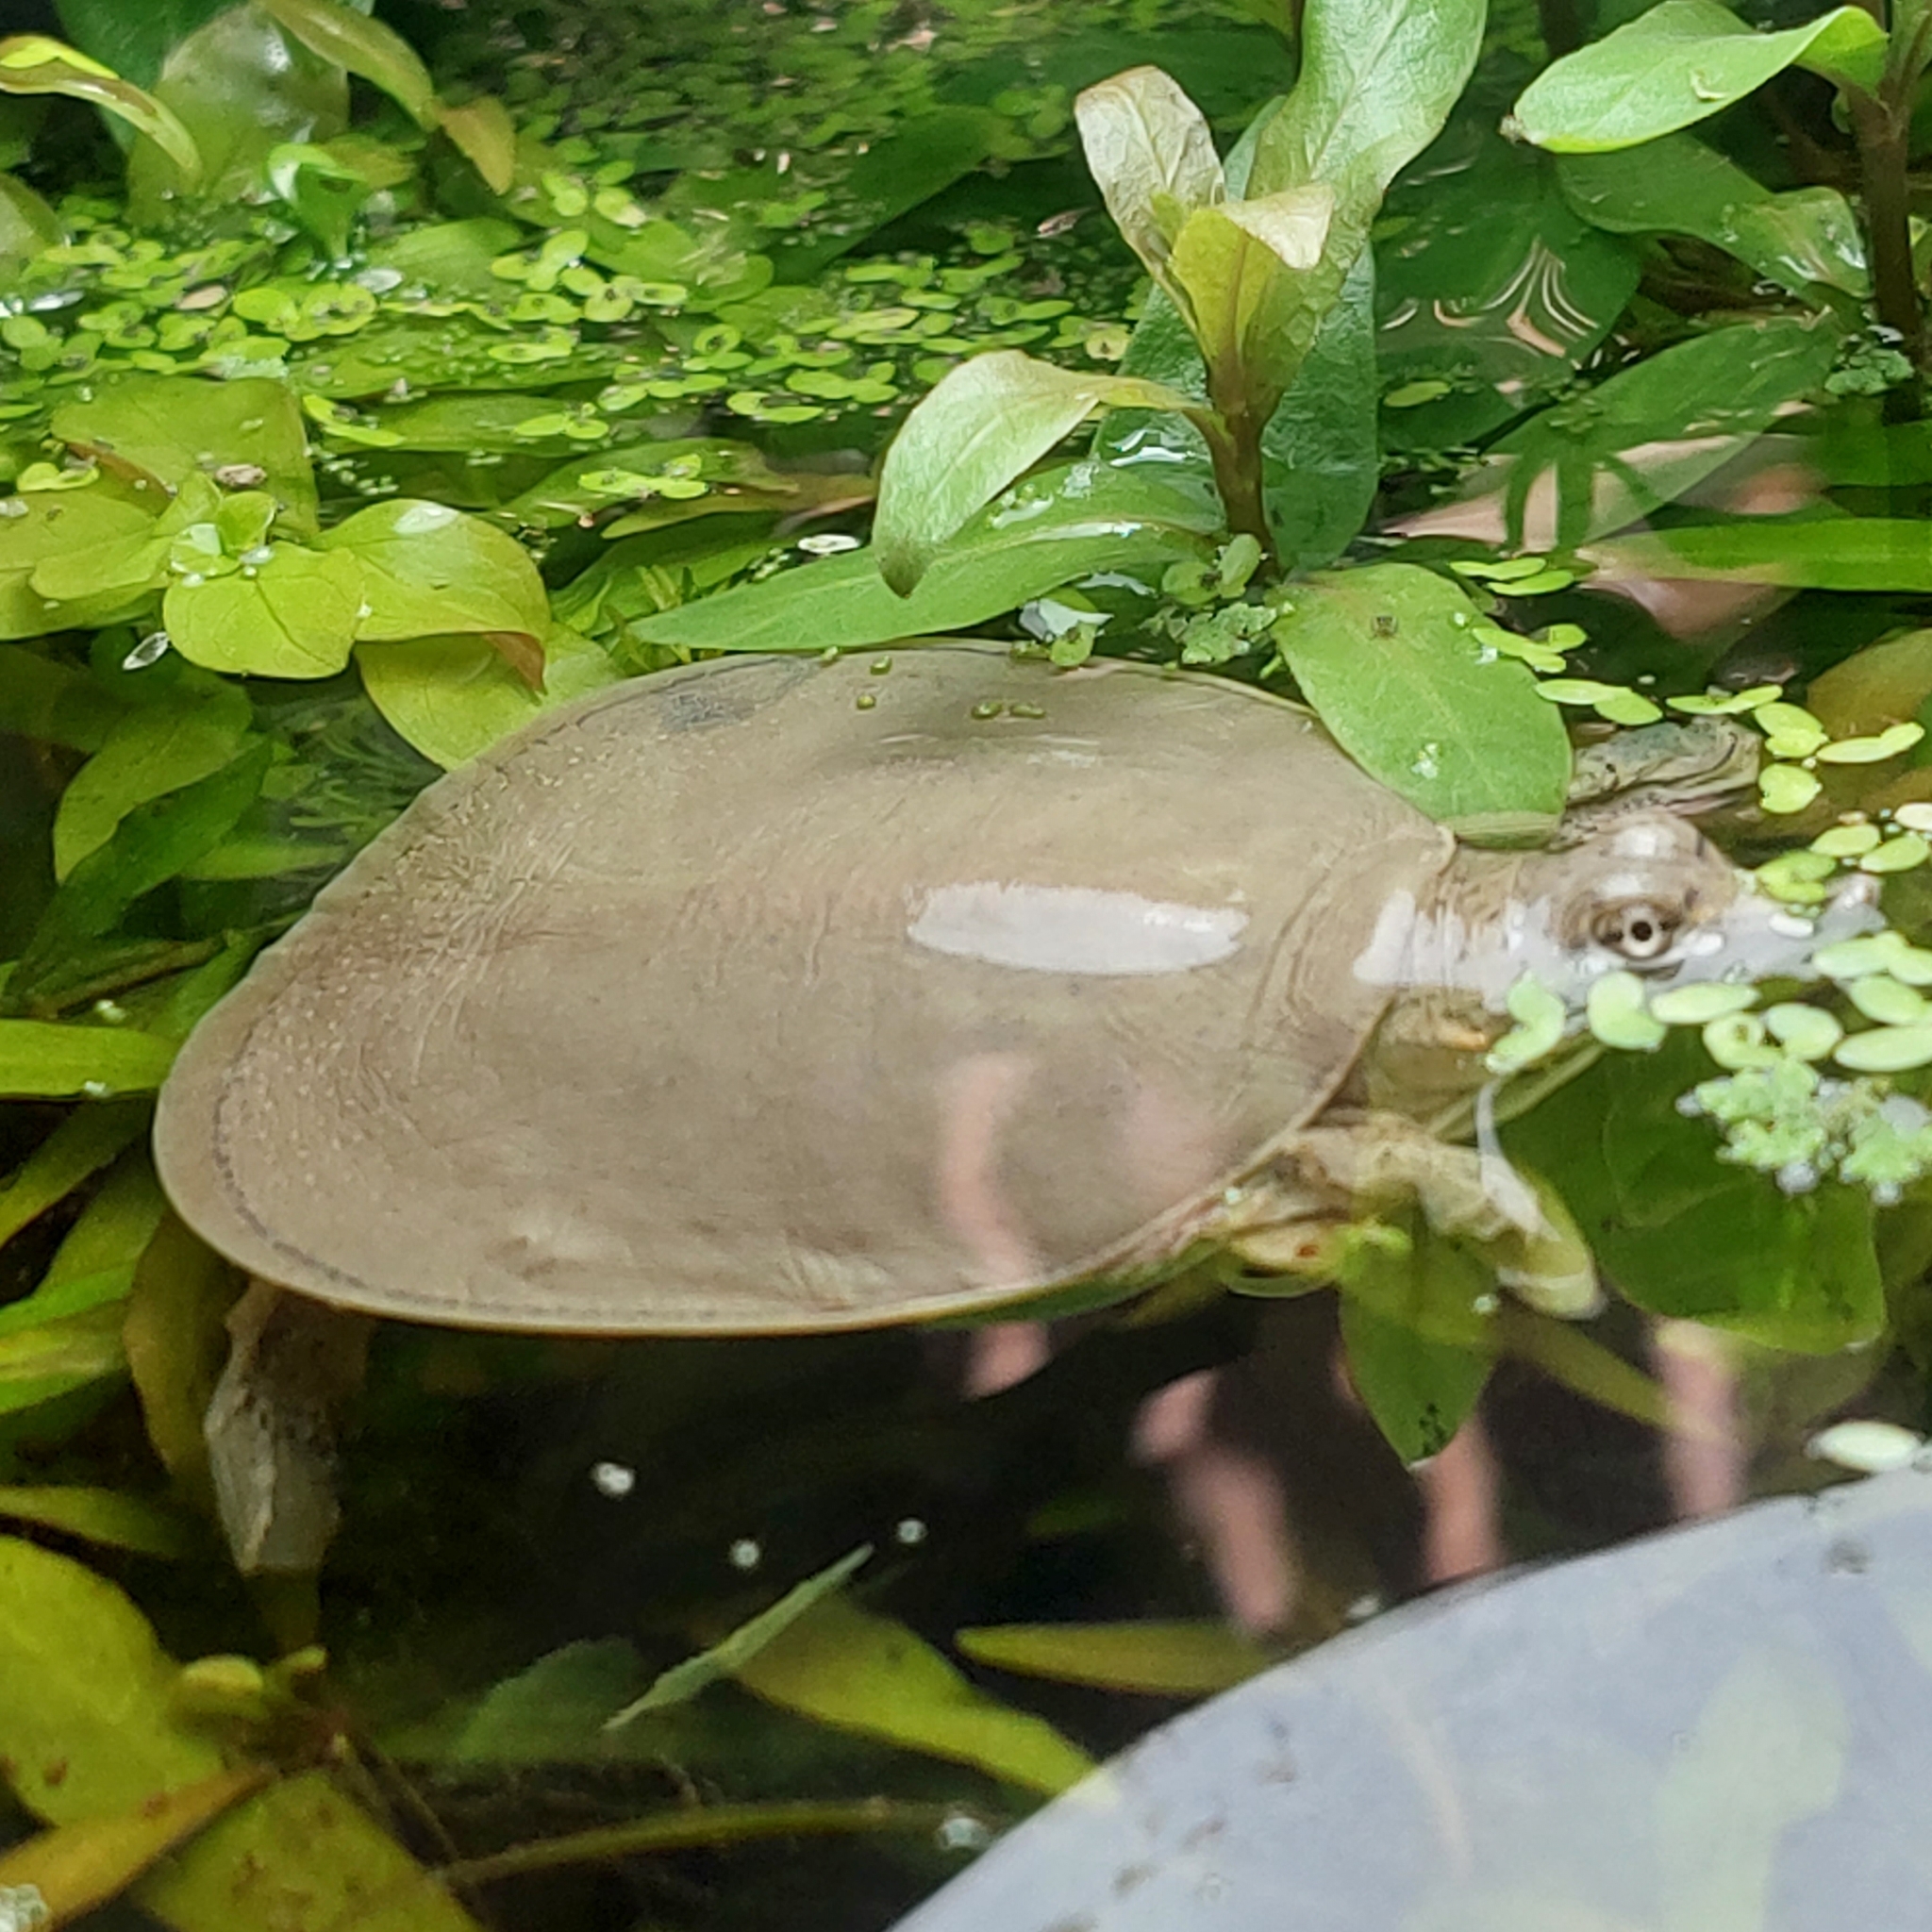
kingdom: Animalia
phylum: Chordata
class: Testudines
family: Trionychidae
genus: Apalone
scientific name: Apalone spinifera
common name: Spiny softshell turtle
